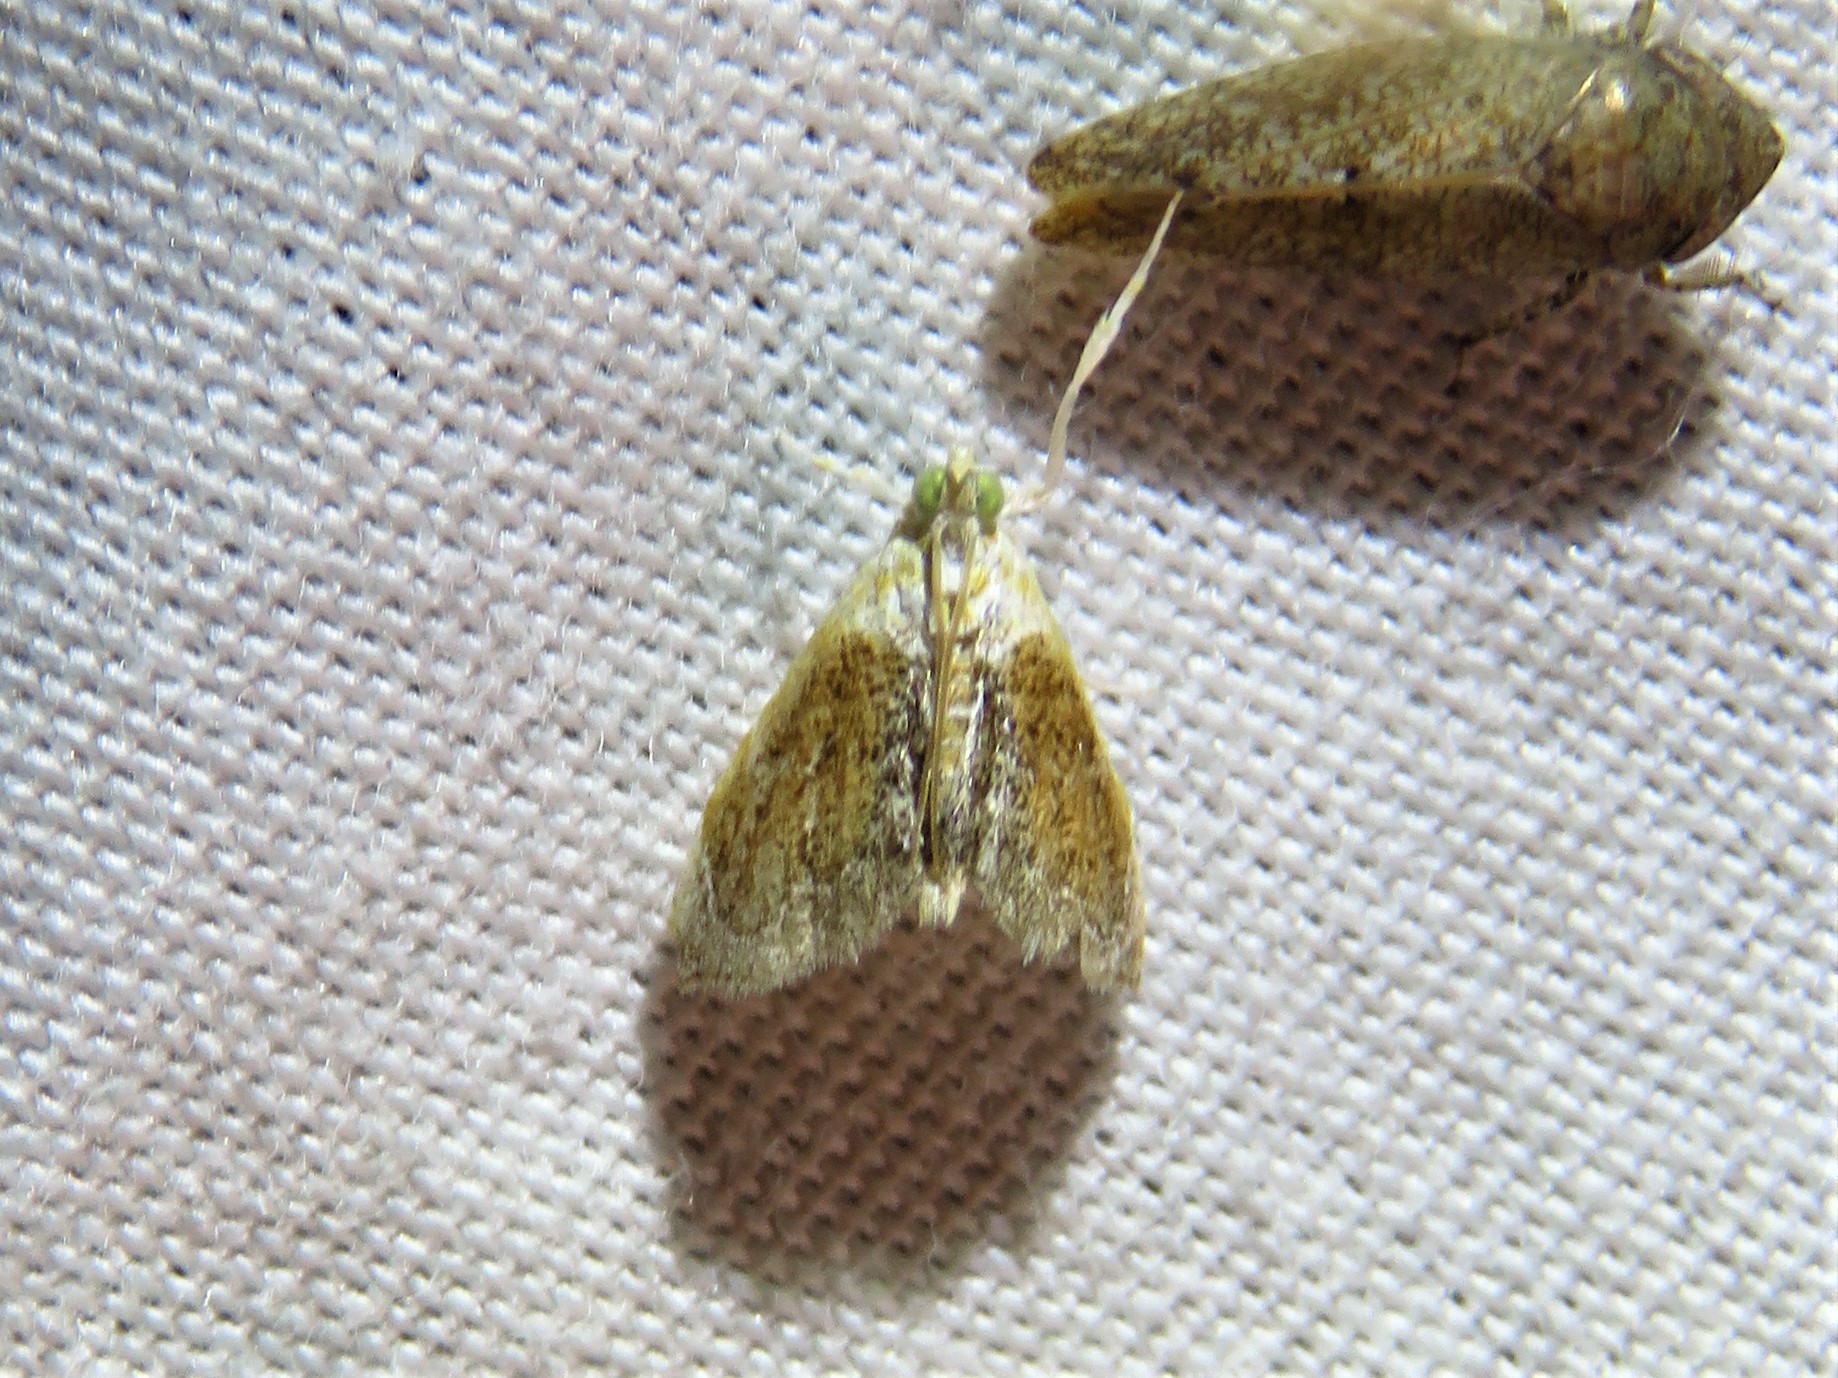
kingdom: Animalia
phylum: Arthropoda
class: Insecta
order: Lepidoptera
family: Crambidae
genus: Lipocosma
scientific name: Lipocosma polingi
